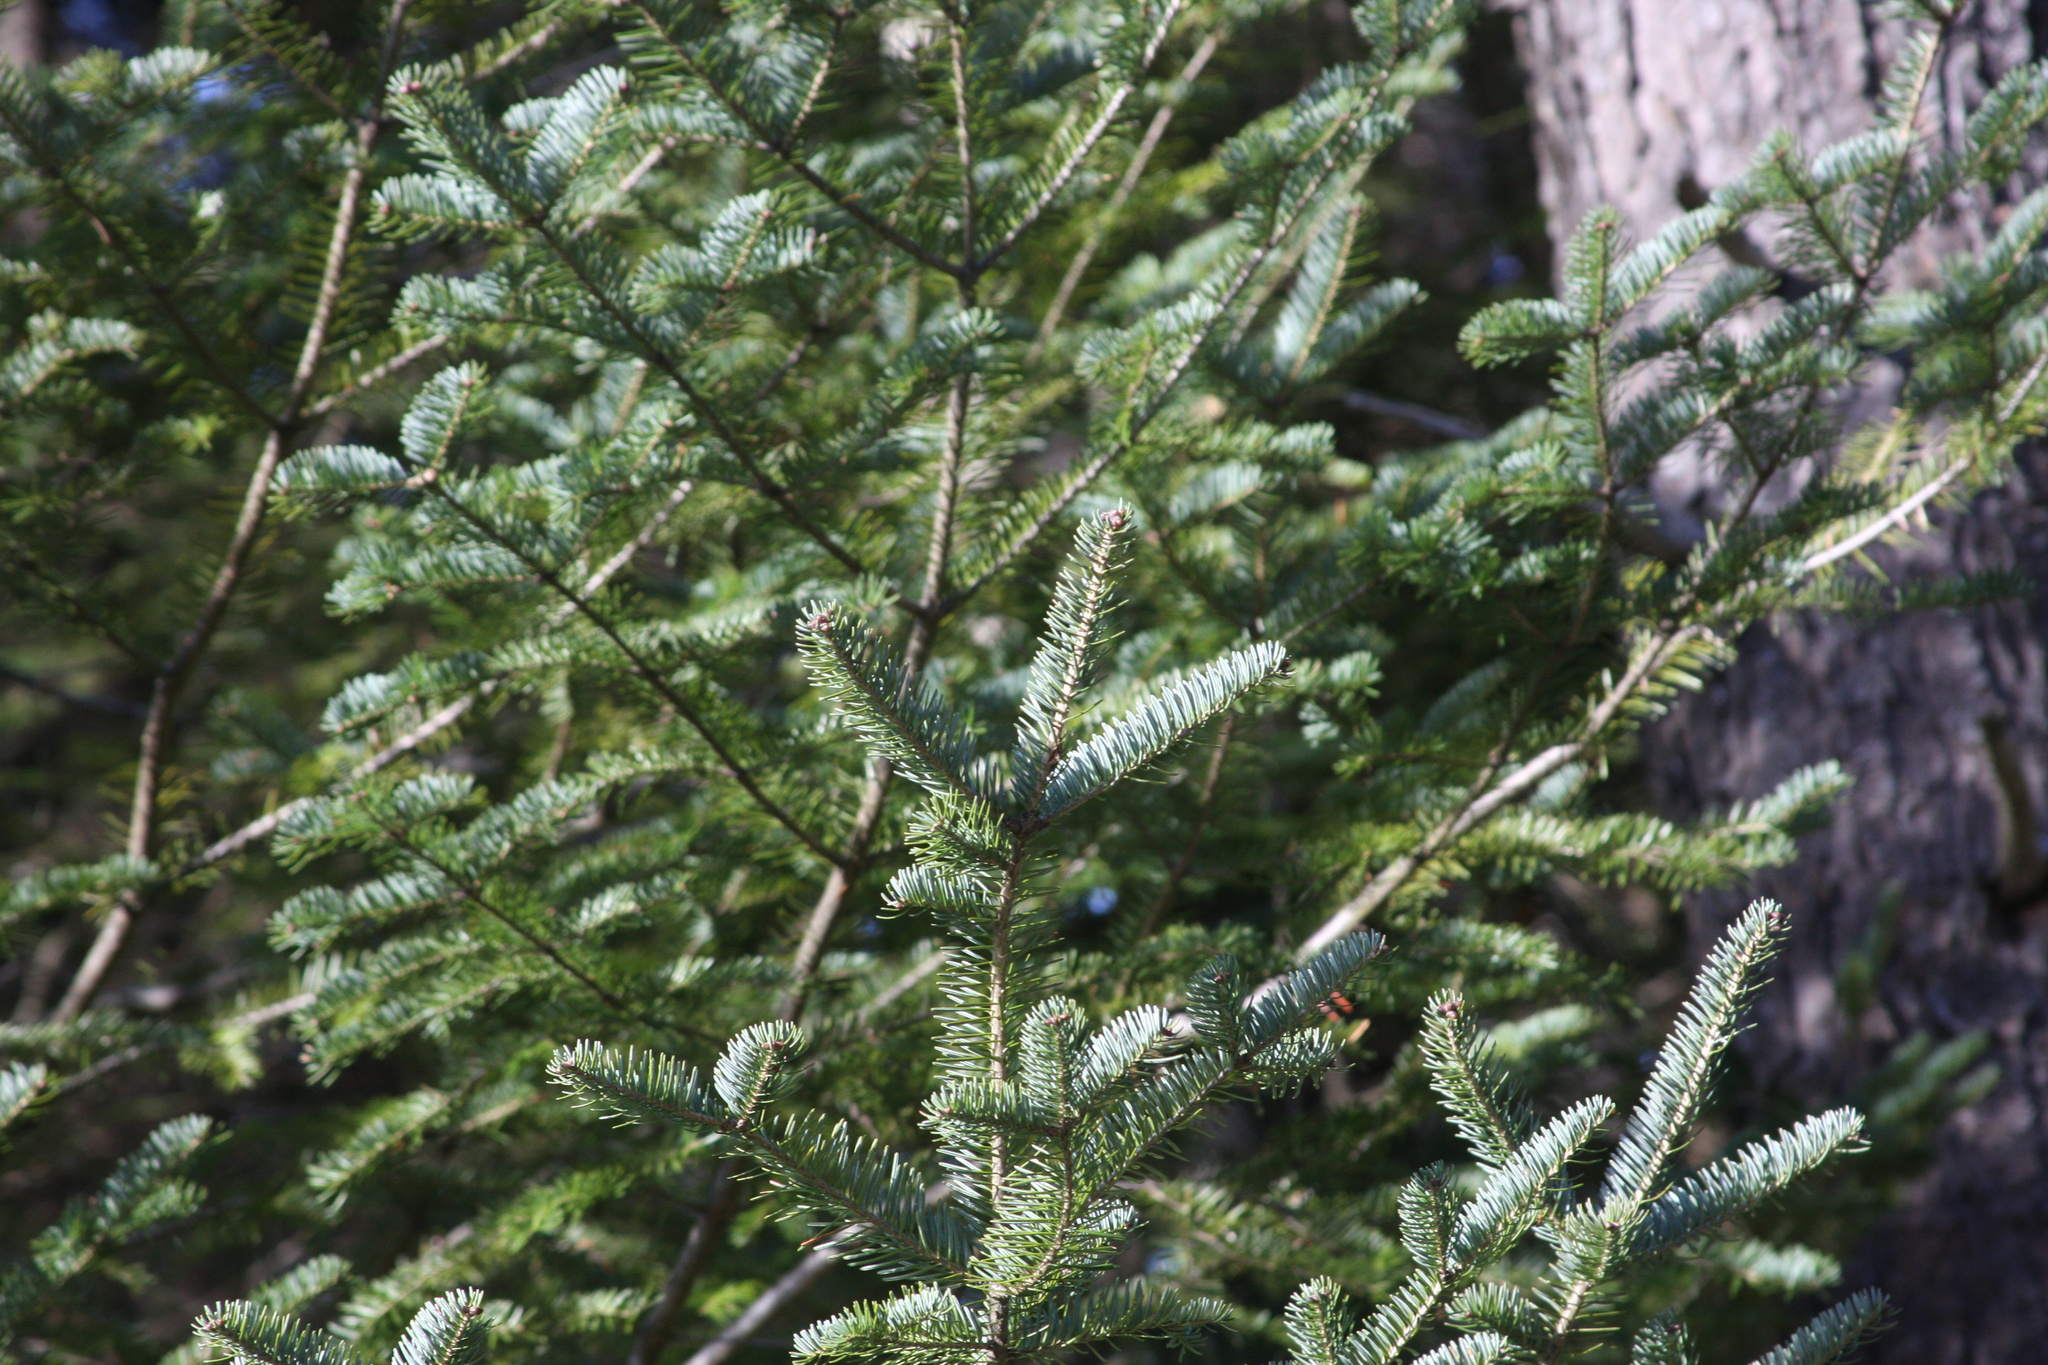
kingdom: Plantae
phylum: Tracheophyta
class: Pinopsida
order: Pinales
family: Pinaceae
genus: Abies
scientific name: Abies balsamea
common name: Balsam fir
